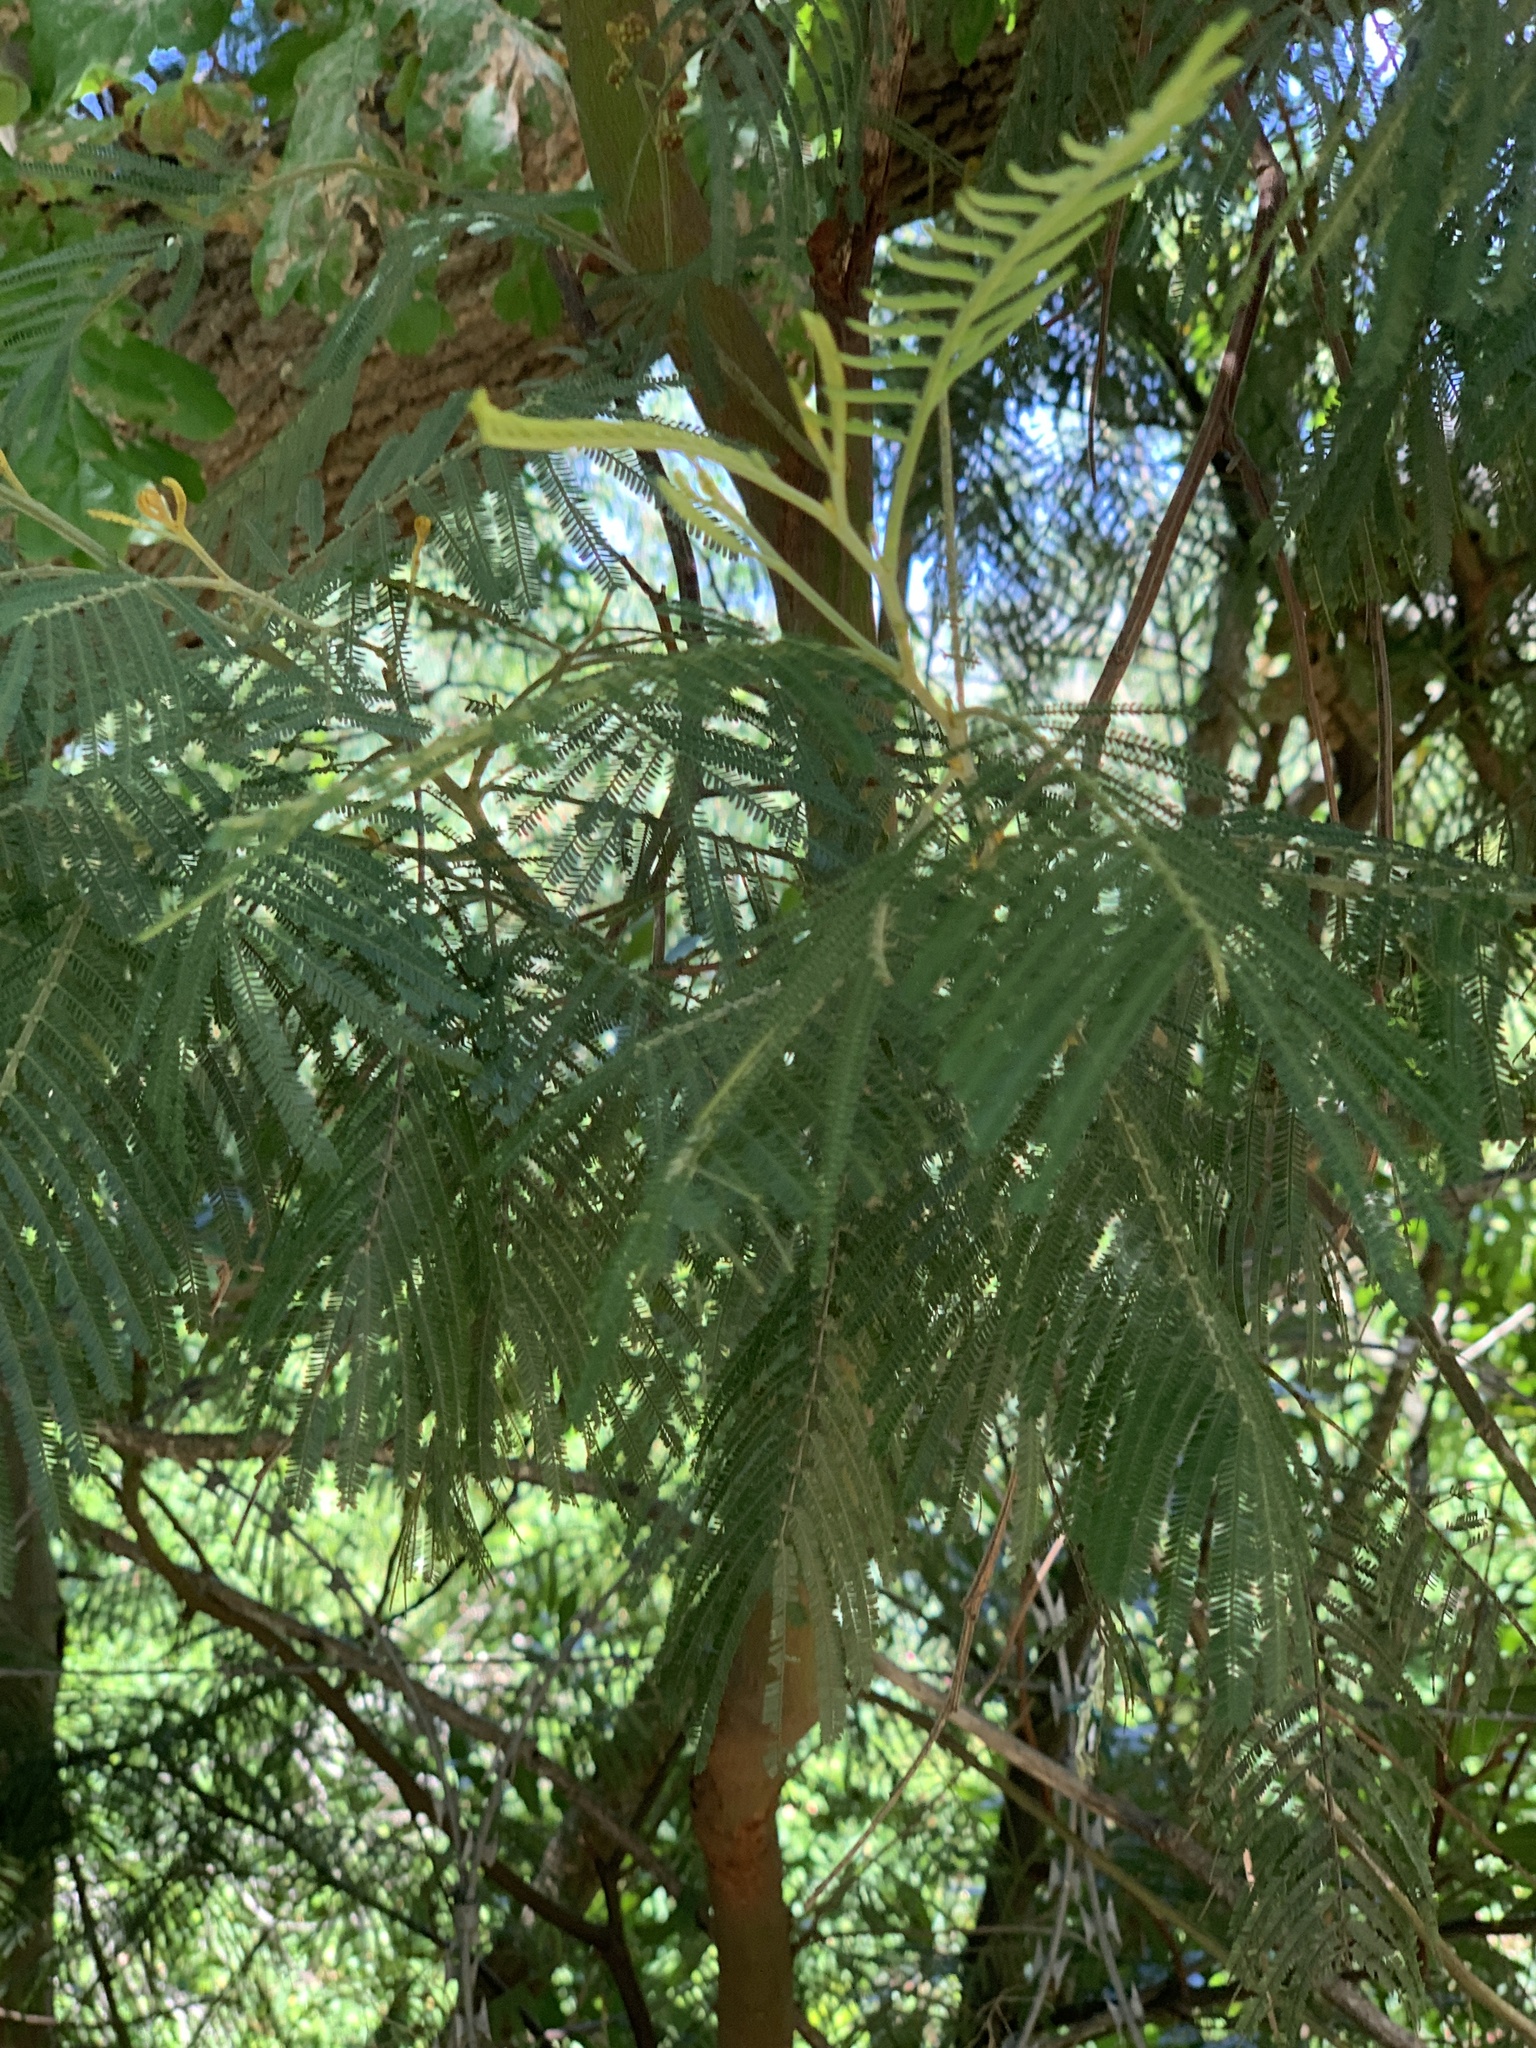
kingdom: Plantae
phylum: Tracheophyta
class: Magnoliopsida
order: Fabales
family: Fabaceae
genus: Acacia
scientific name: Acacia mearnsii
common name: Black wattle
